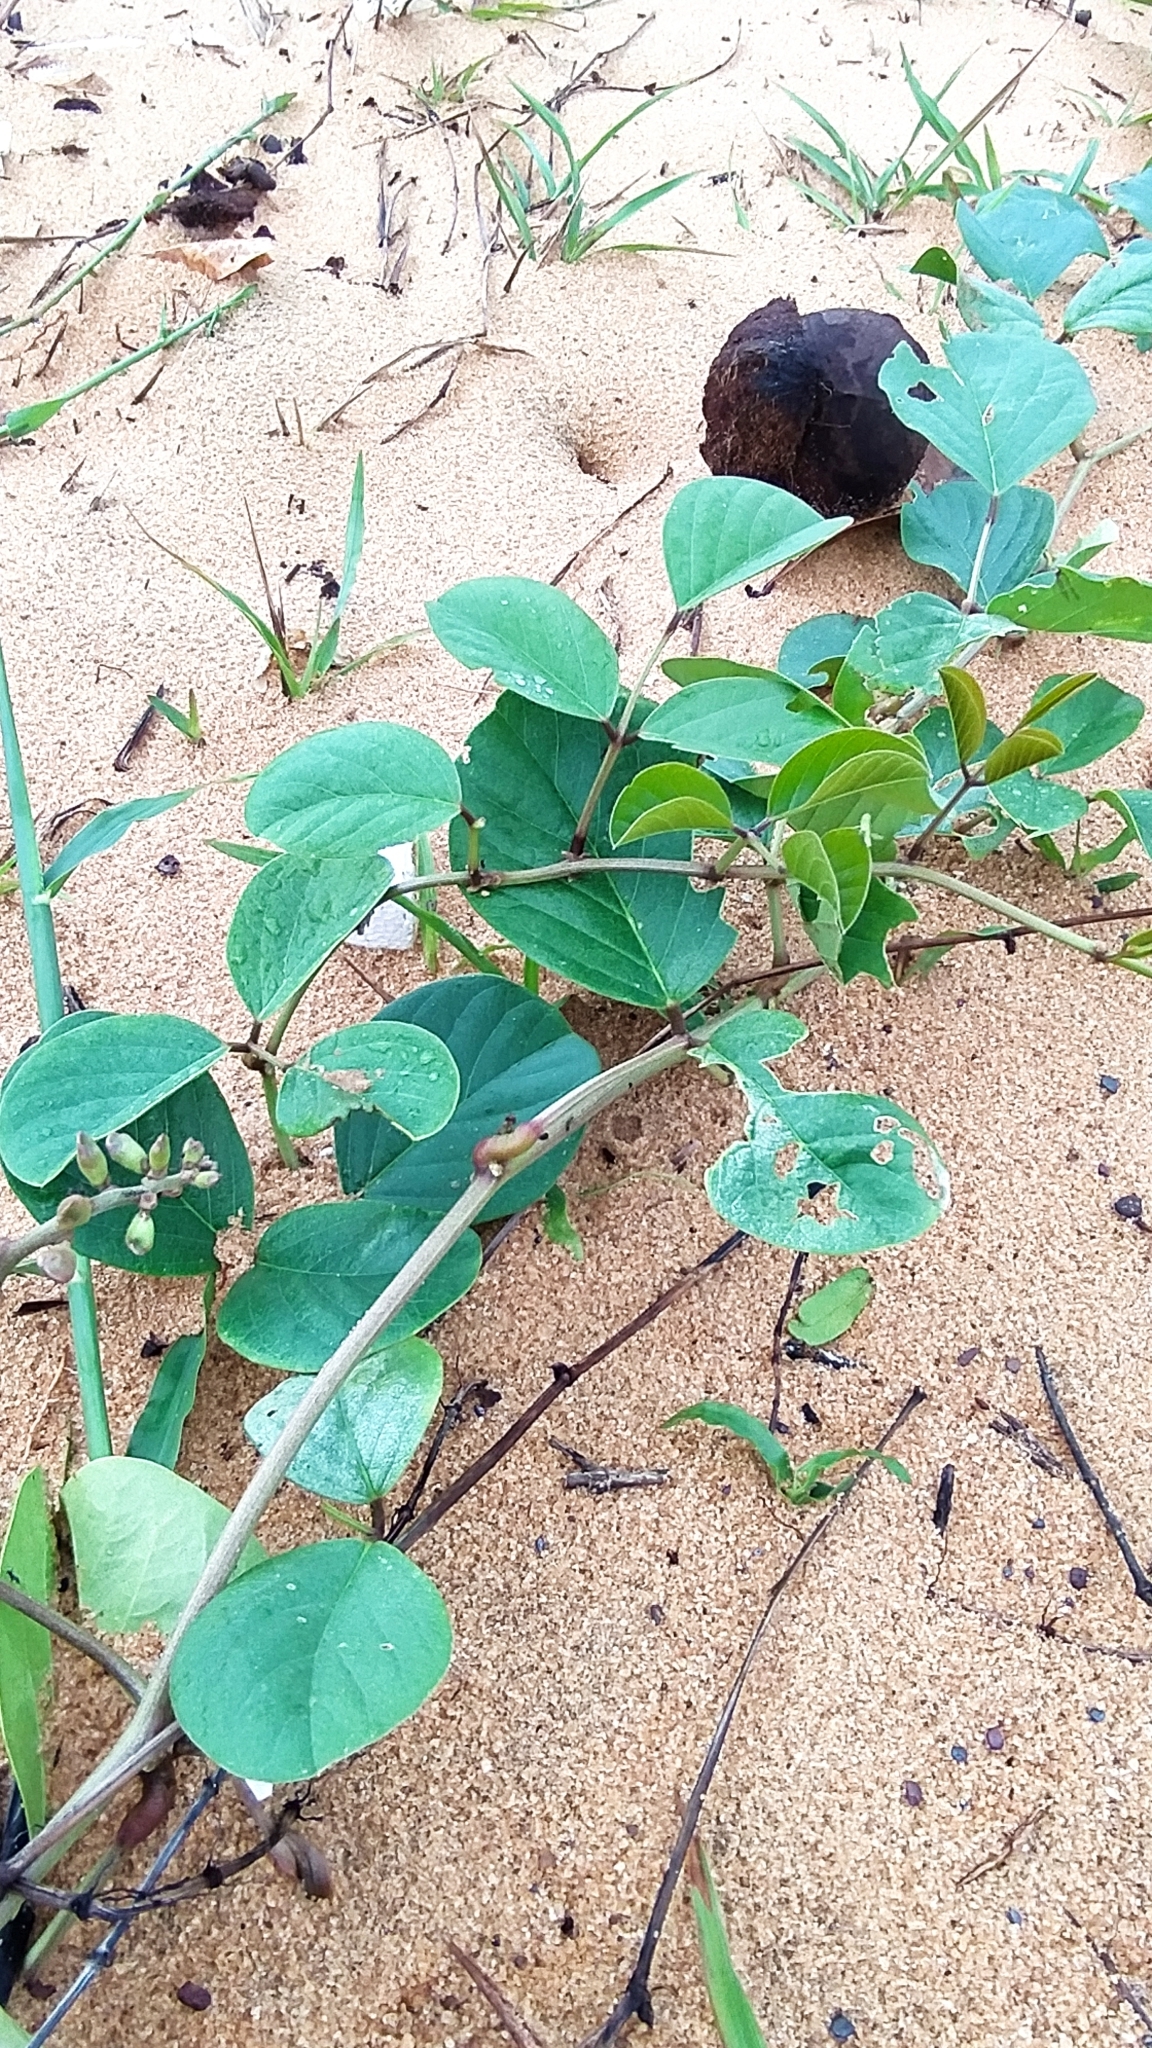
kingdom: Plantae
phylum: Tracheophyta
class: Magnoliopsida
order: Fabales
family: Fabaceae
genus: Canavalia
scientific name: Canavalia rosea
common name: Beach-bean
